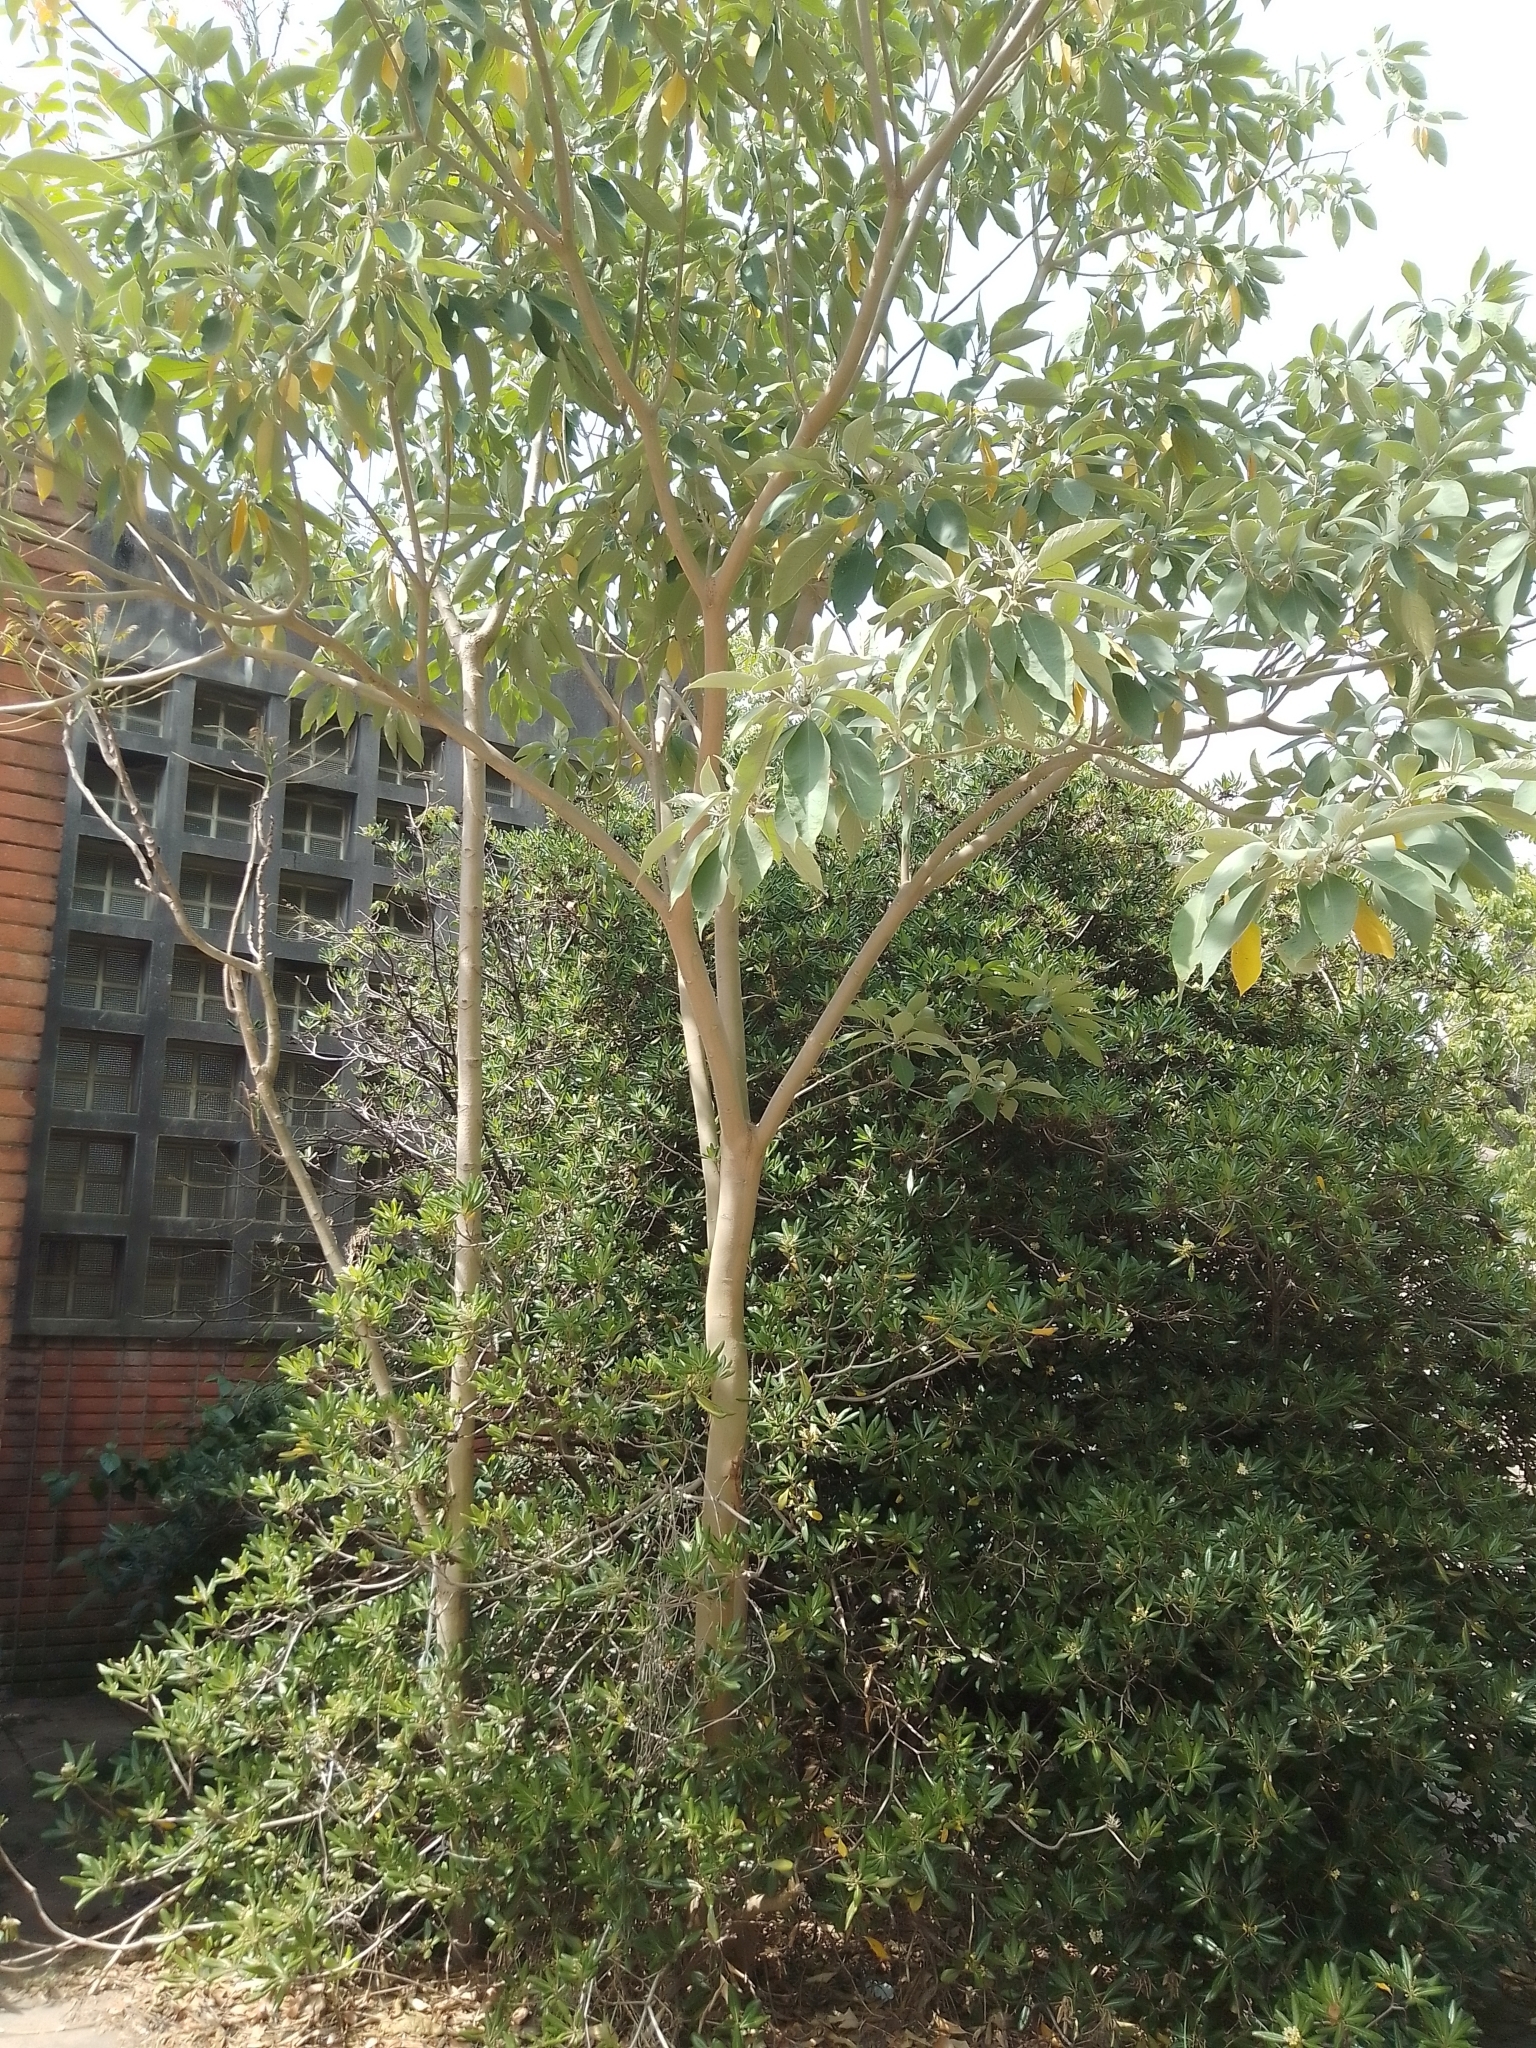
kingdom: Plantae
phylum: Tracheophyta
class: Magnoliopsida
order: Solanales
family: Solanaceae
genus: Solanum
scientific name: Solanum granulosoleprosum
